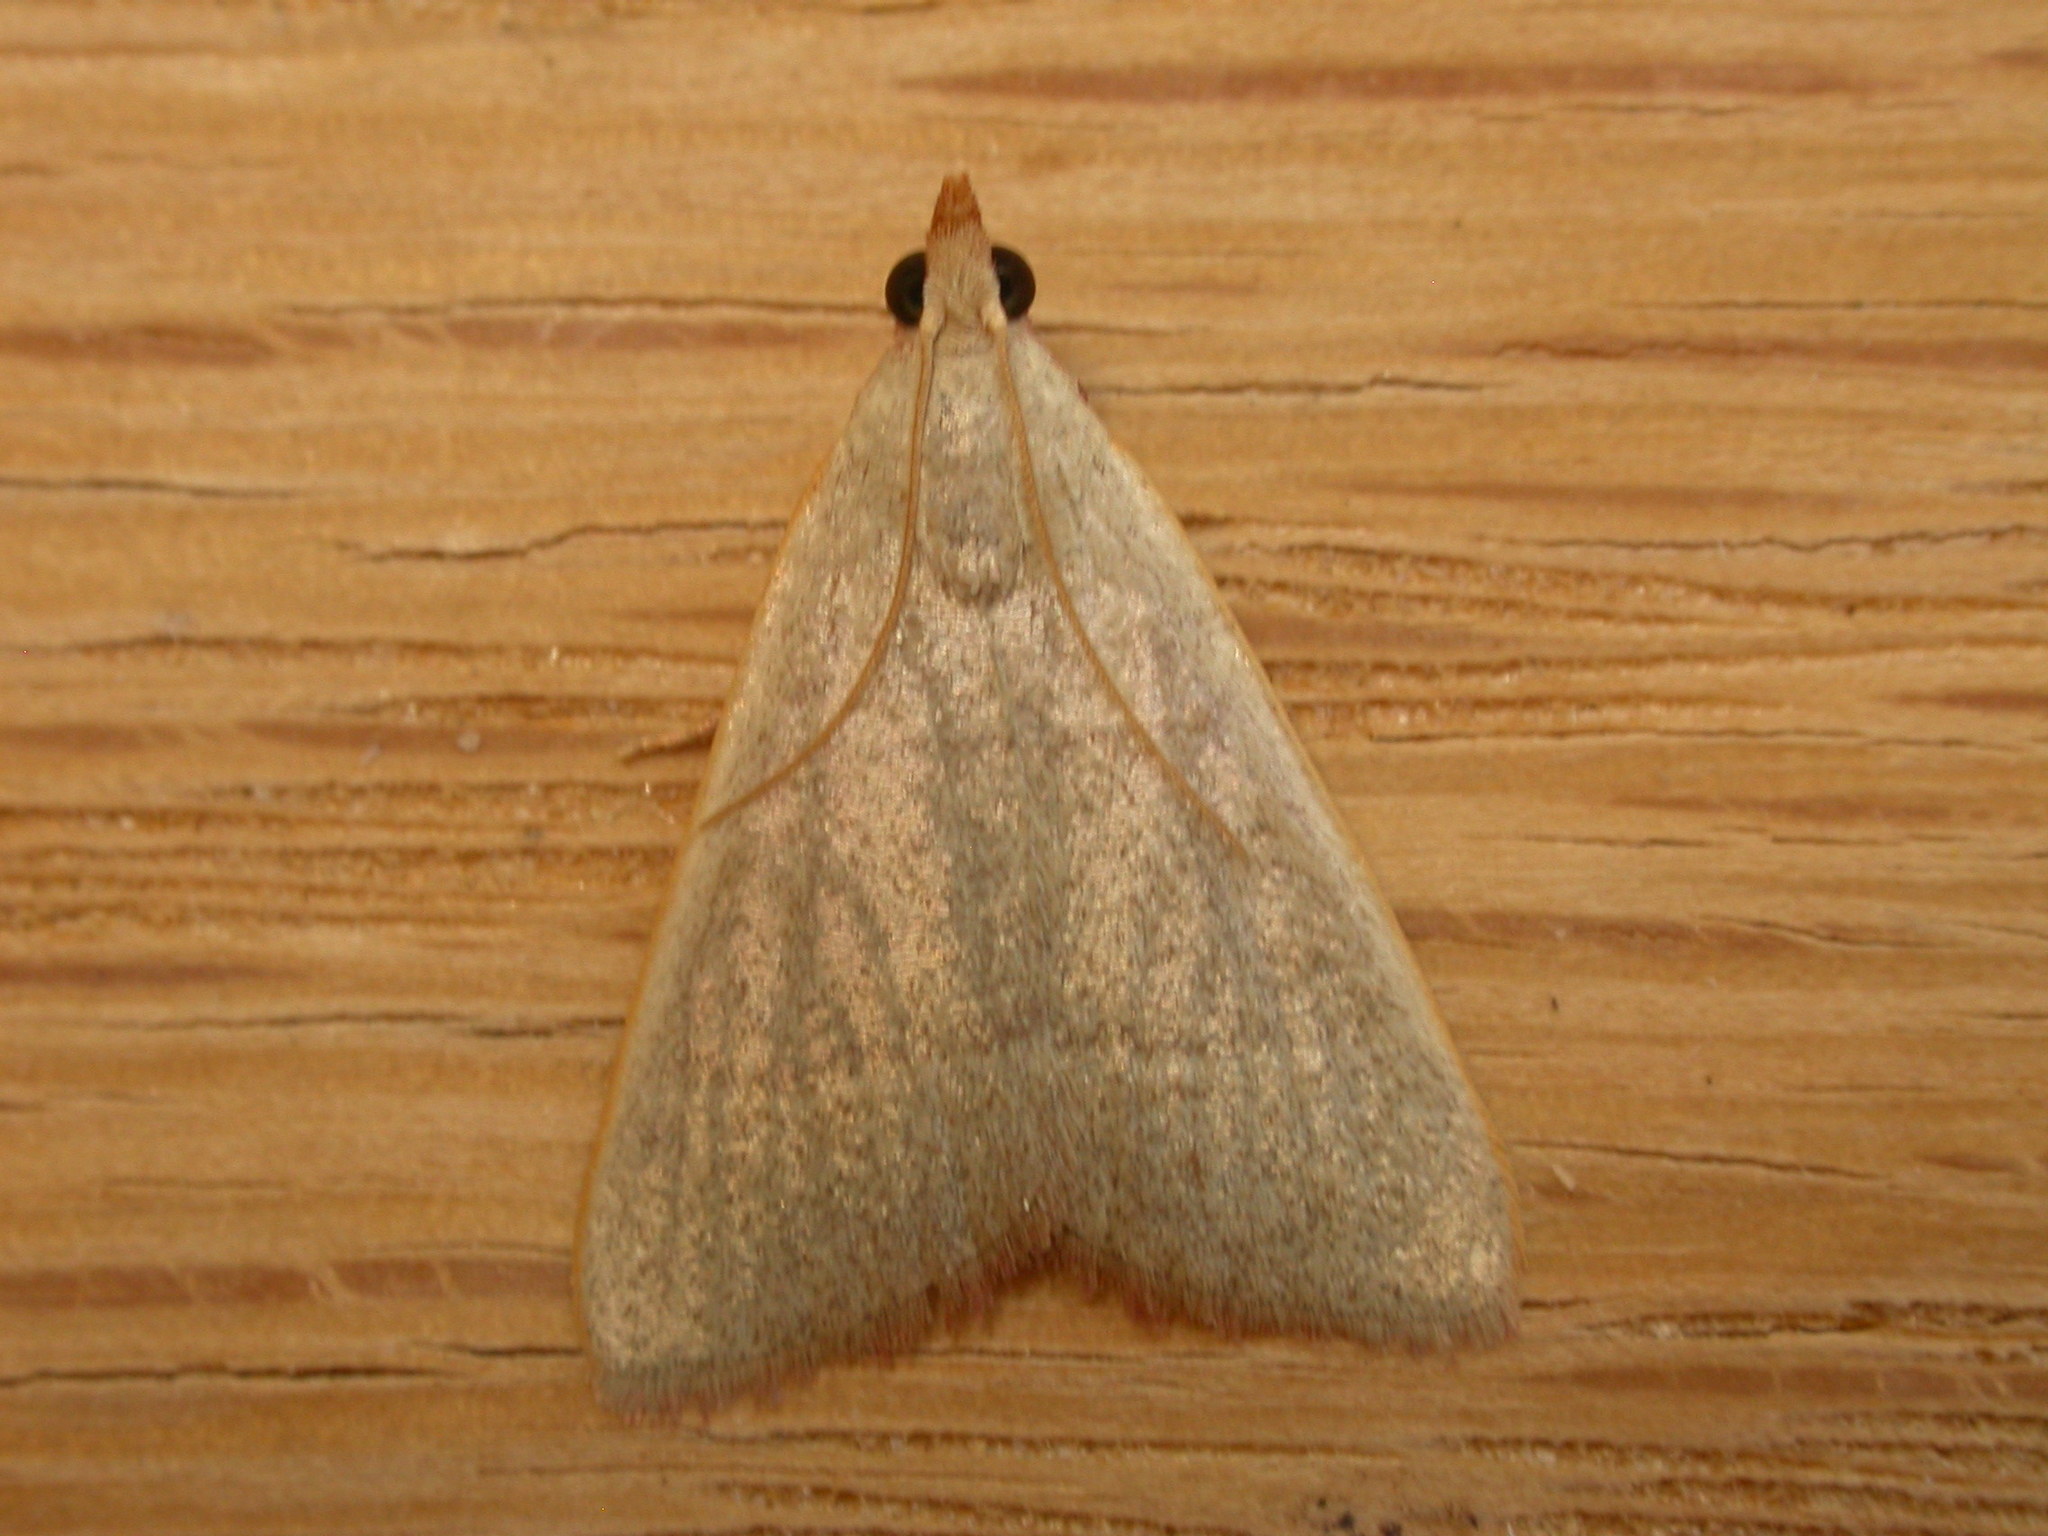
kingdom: Animalia
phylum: Arthropoda
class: Insecta
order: Lepidoptera
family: Pyralidae
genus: Hypsopygia
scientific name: Hypsopygia
